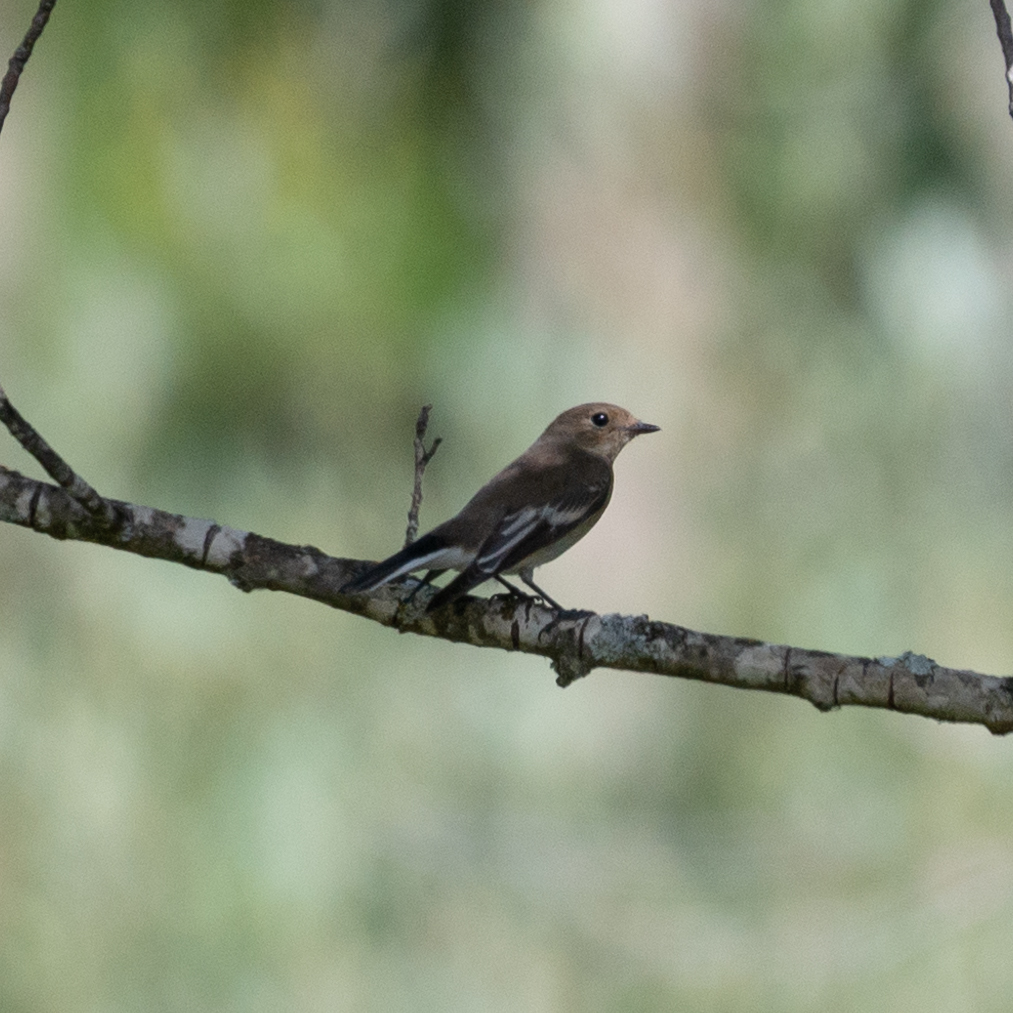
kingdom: Animalia
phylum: Chordata
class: Aves
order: Passeriformes
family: Muscicapidae
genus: Ficedula
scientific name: Ficedula hypoleuca
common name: European pied flycatcher
